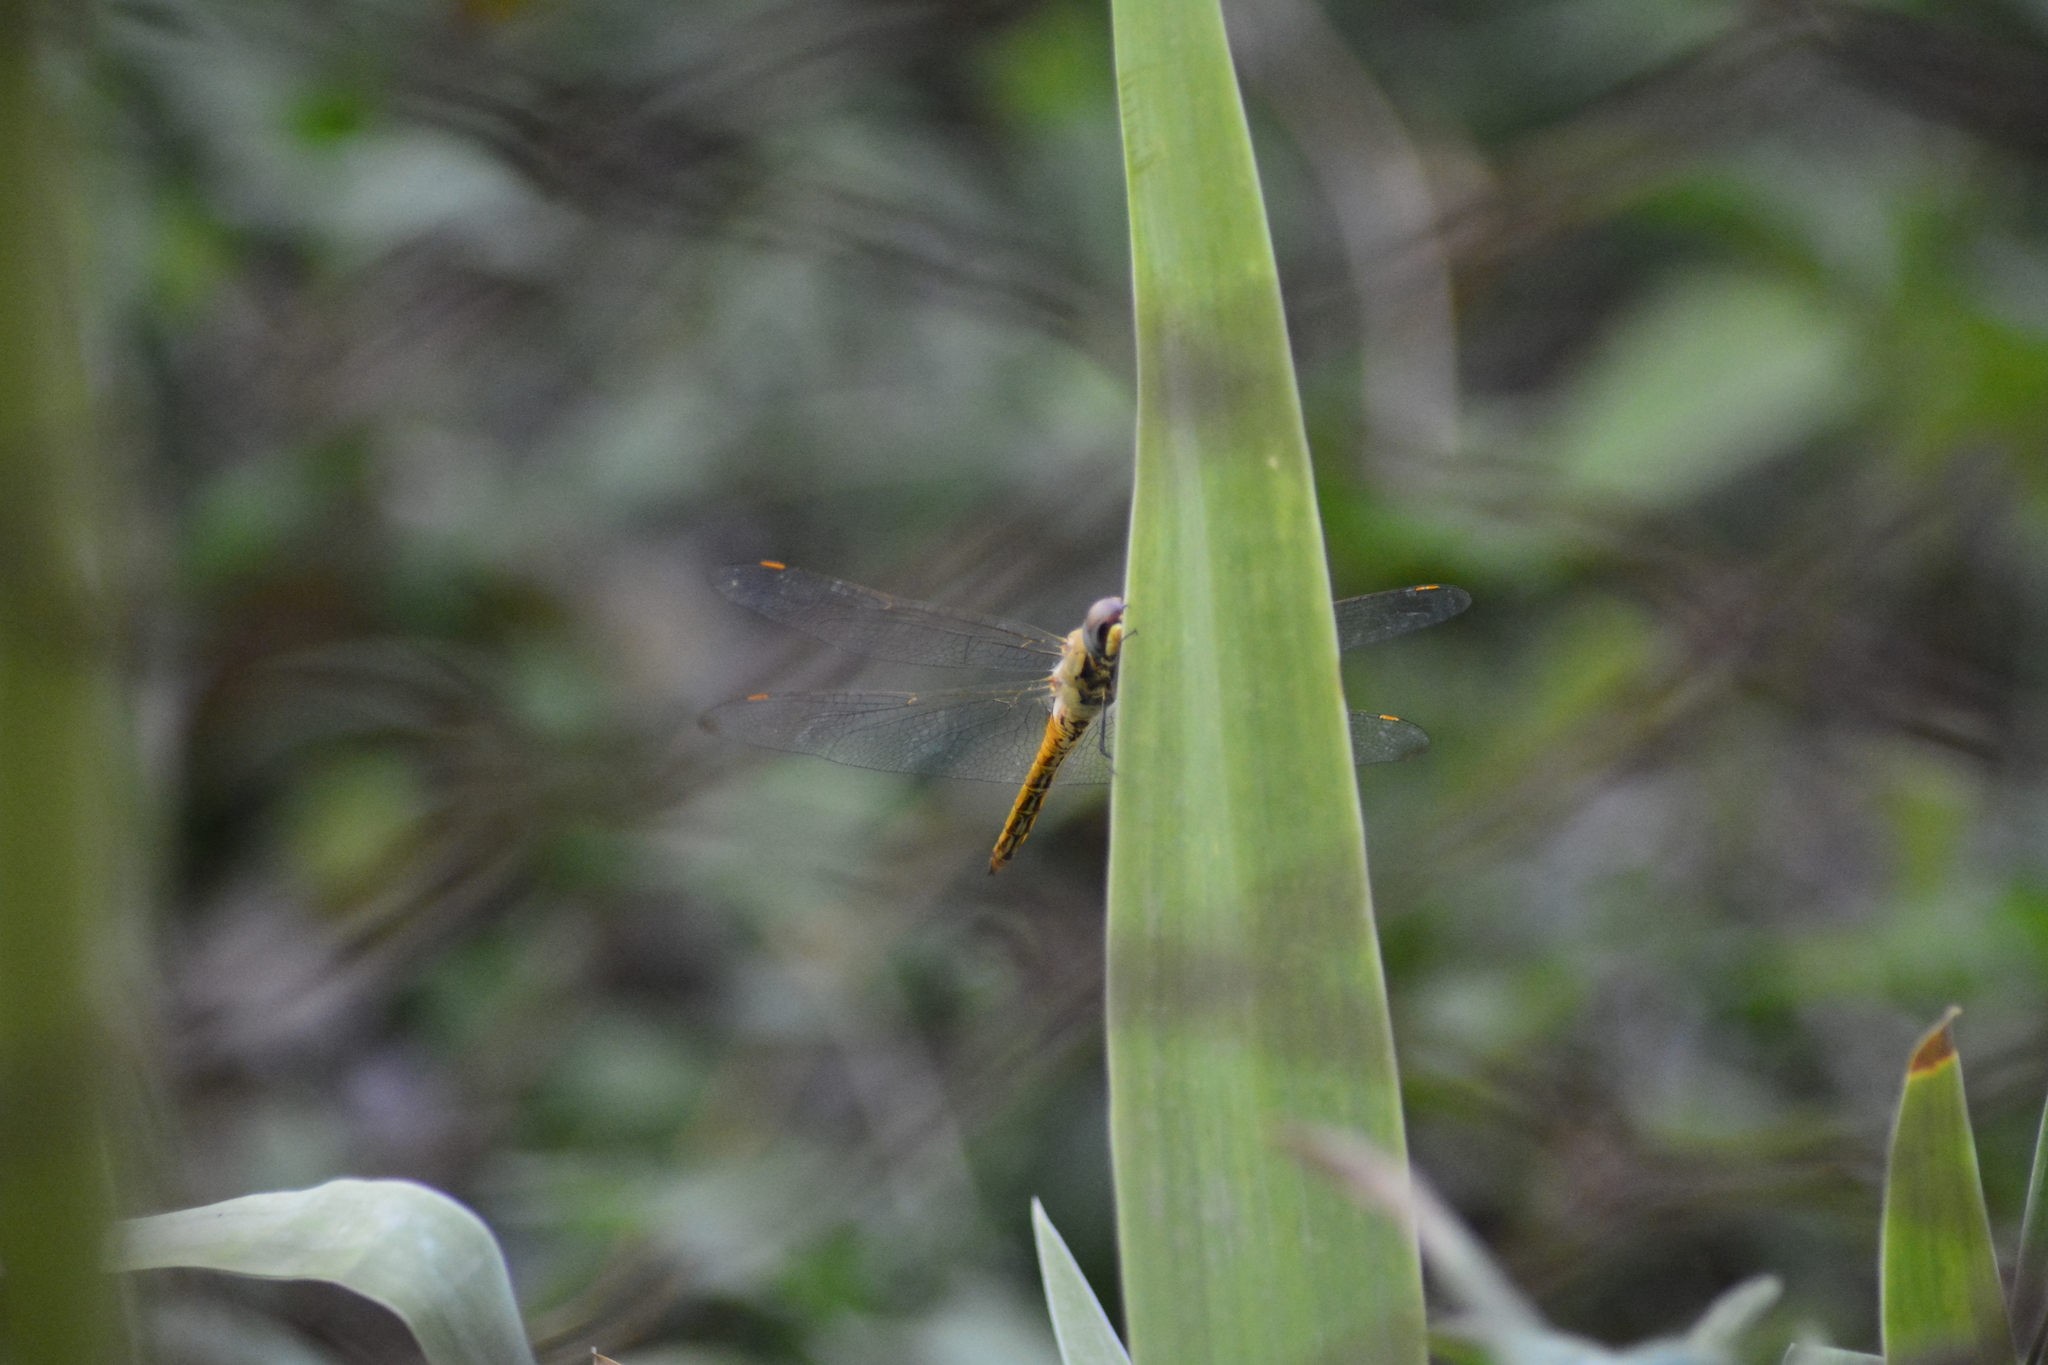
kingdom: Animalia
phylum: Arthropoda
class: Insecta
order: Odonata
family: Libellulidae
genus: Pantala
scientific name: Pantala flavescens
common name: Wandering glider
